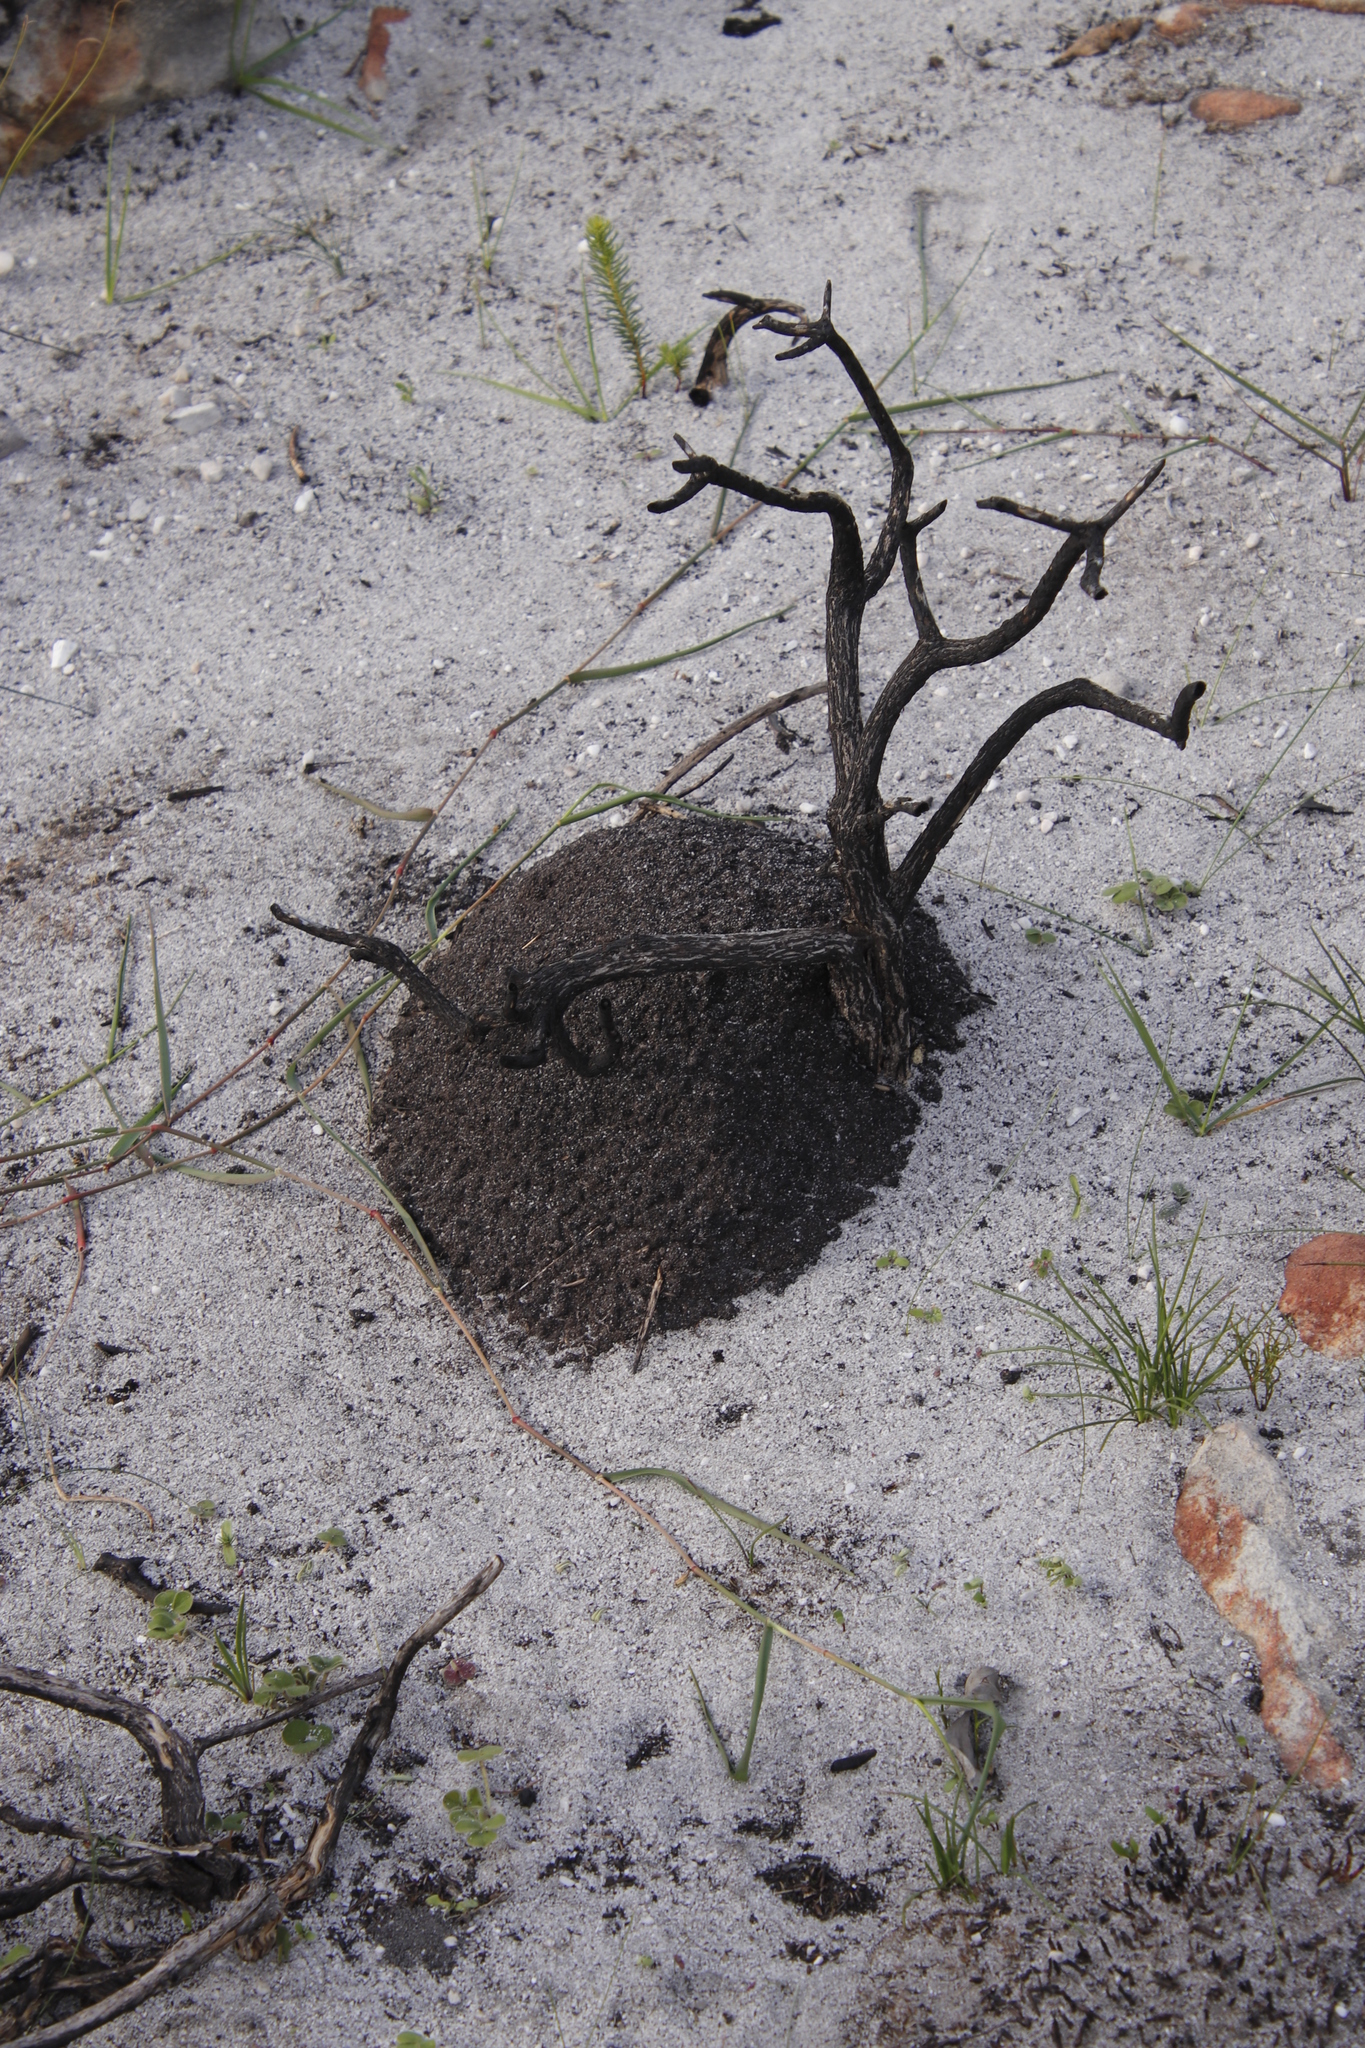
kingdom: Animalia
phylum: Arthropoda
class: Insecta
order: Blattodea
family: Termitidae
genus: Amitermes
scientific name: Amitermes hastatus
